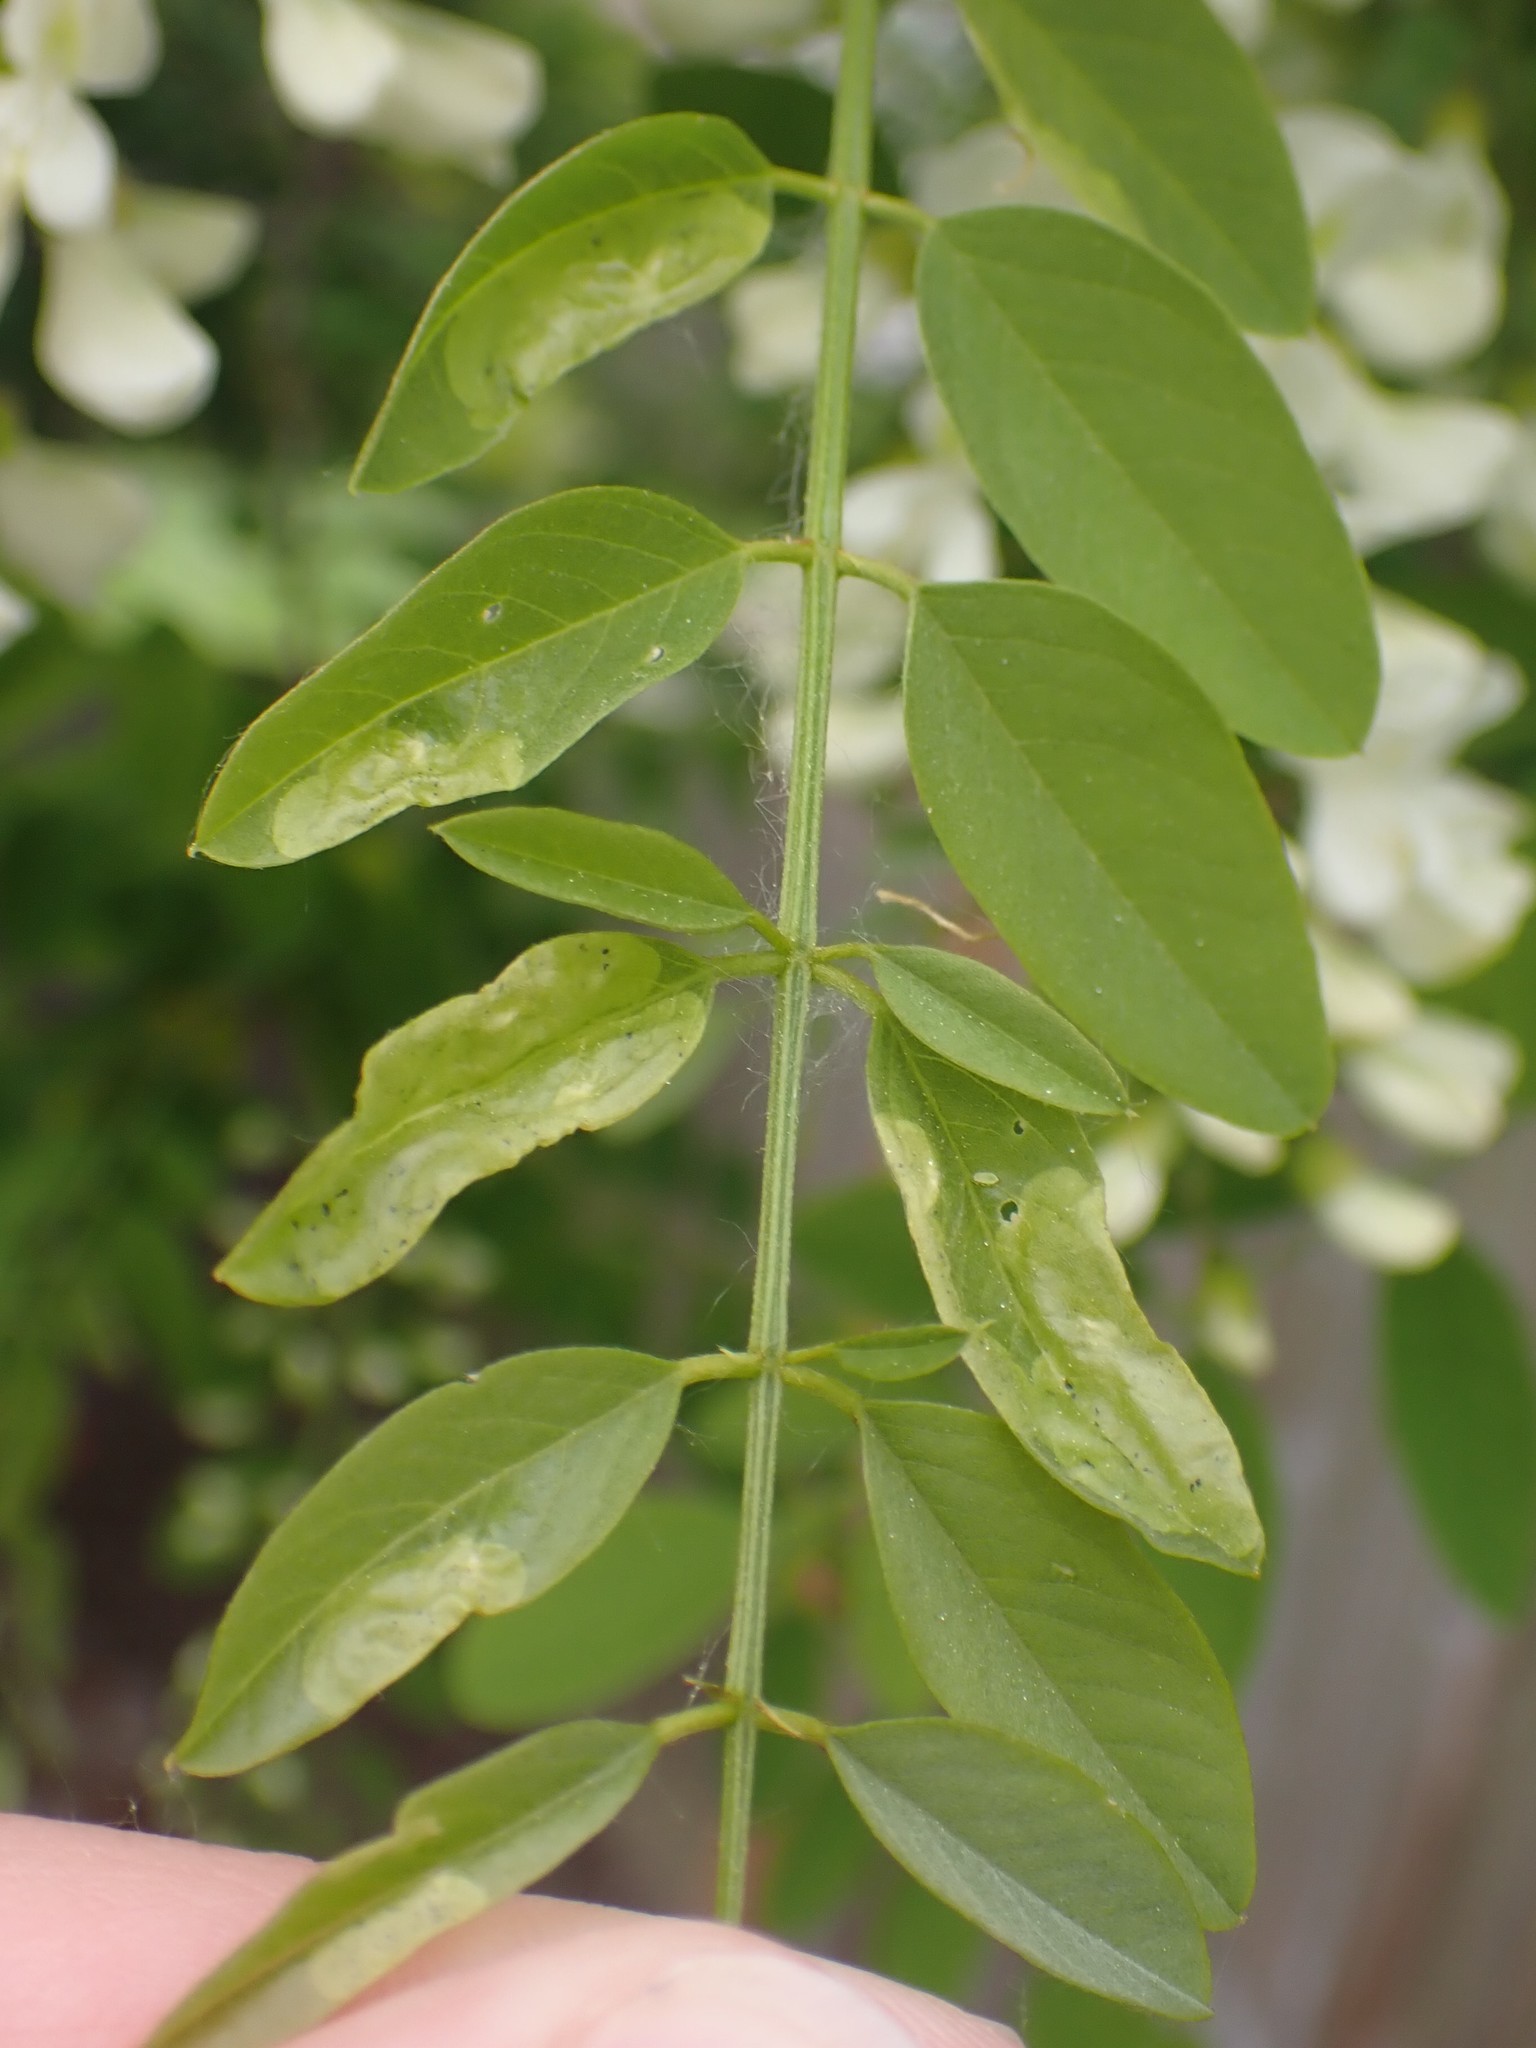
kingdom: Animalia
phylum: Arthropoda
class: Insecta
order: Diptera
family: Agromyzidae
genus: Agromyza
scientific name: Agromyza soka
